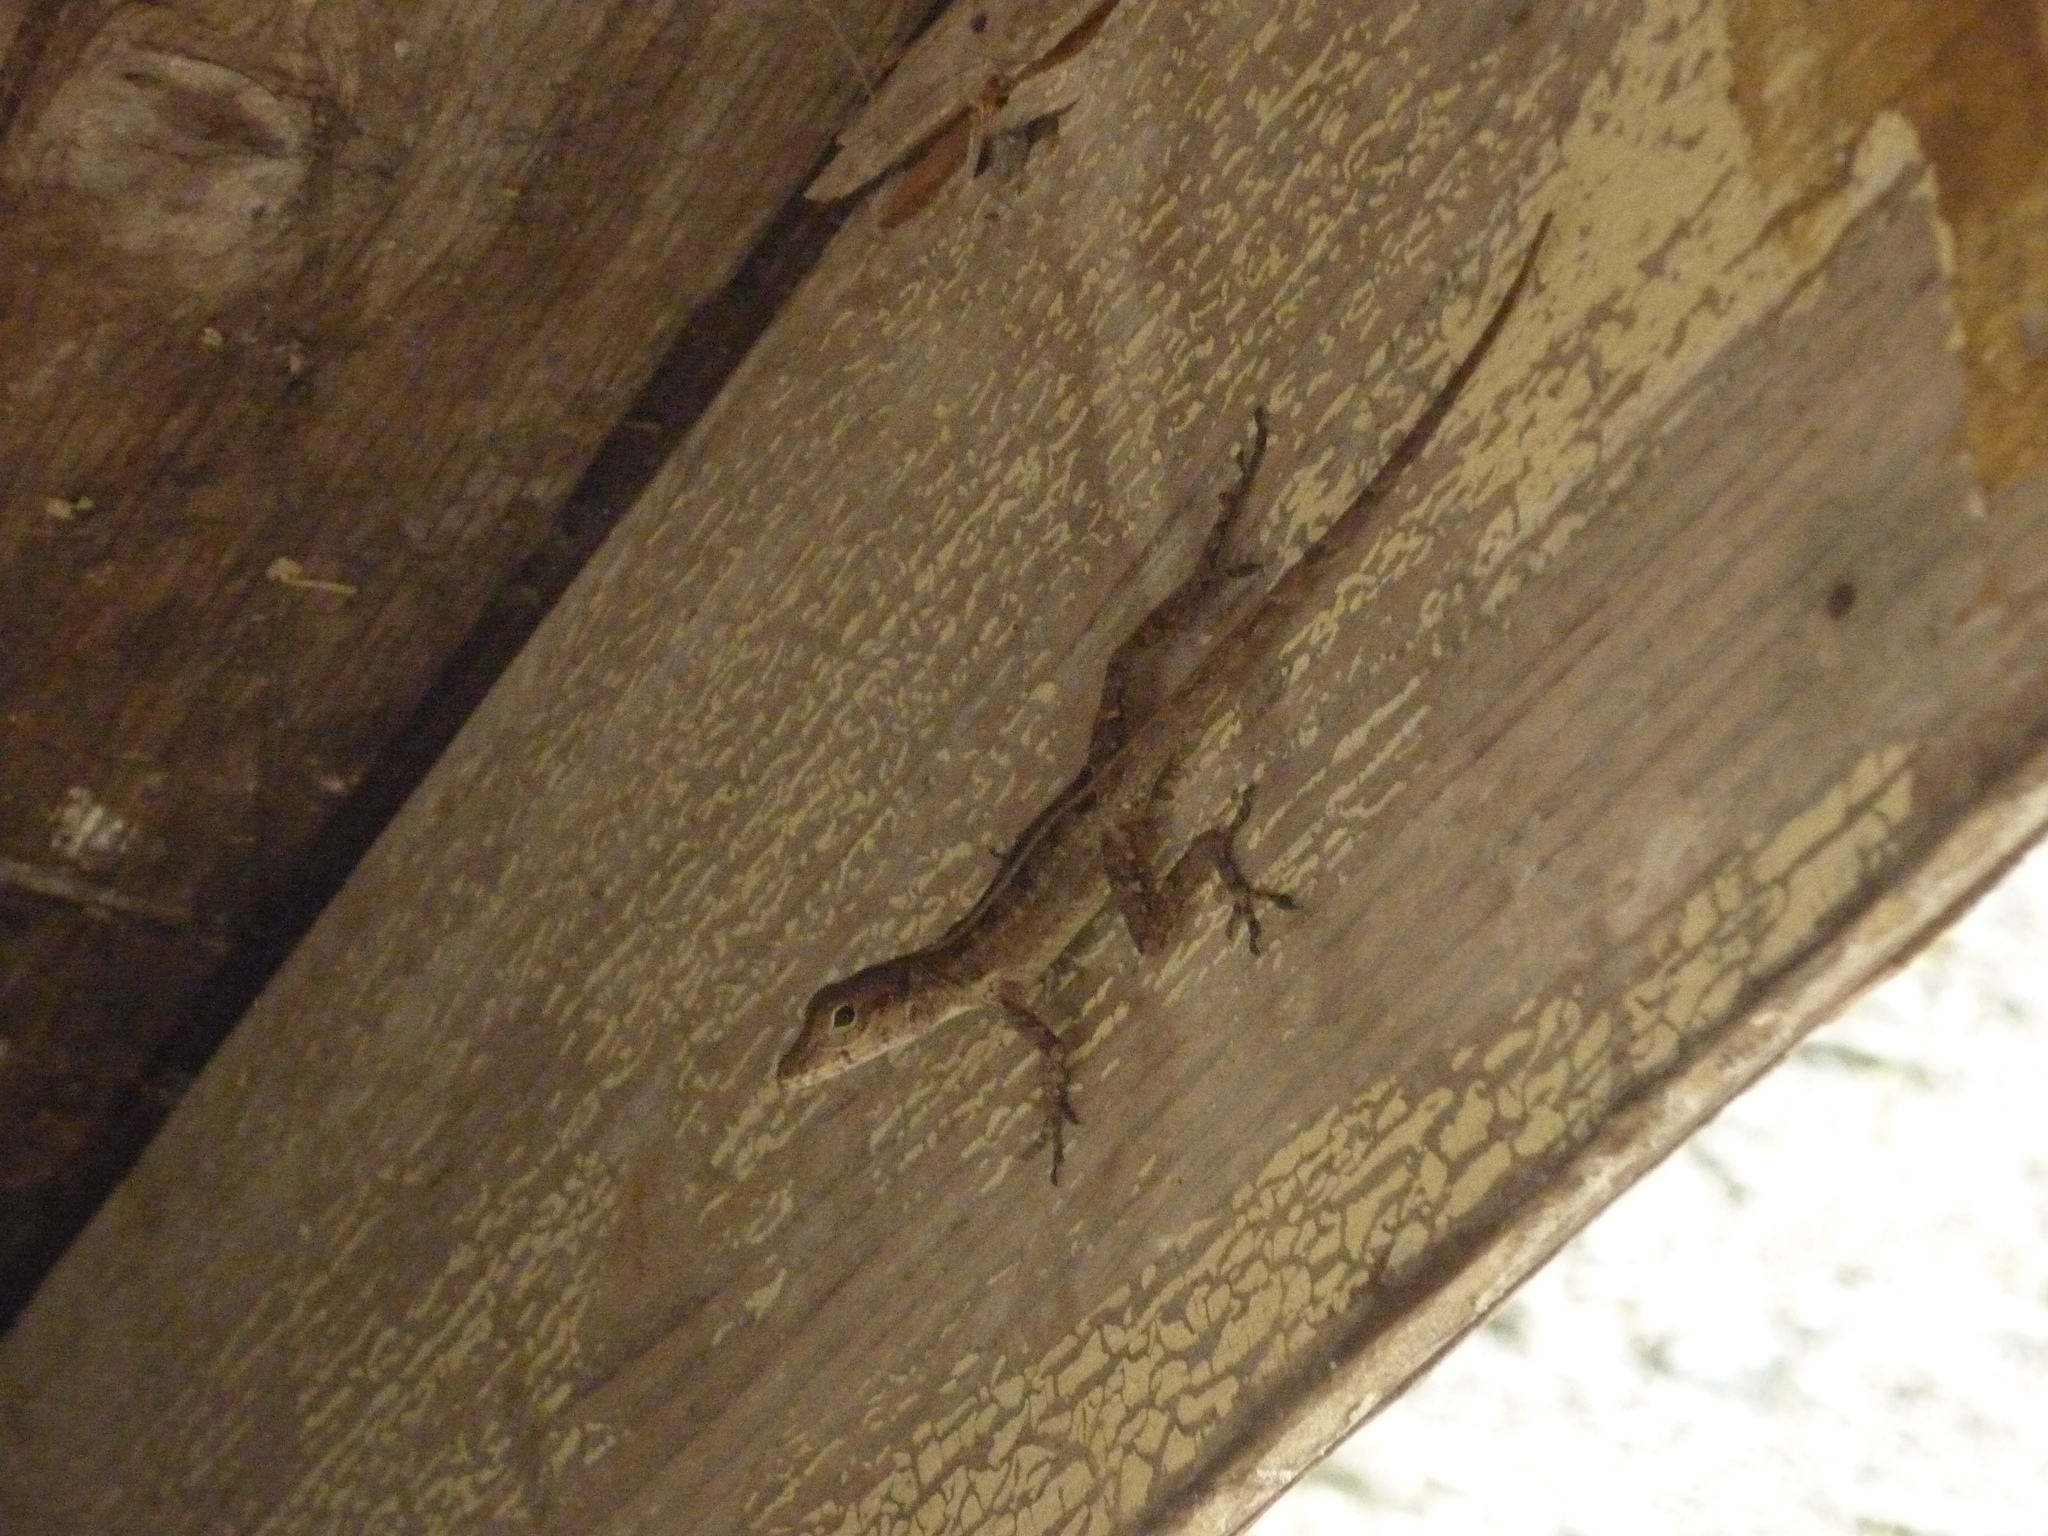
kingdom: Animalia
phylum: Chordata
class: Squamata
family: Dactyloidae
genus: Anolis
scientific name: Anolis cristatellus
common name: Crested anole
